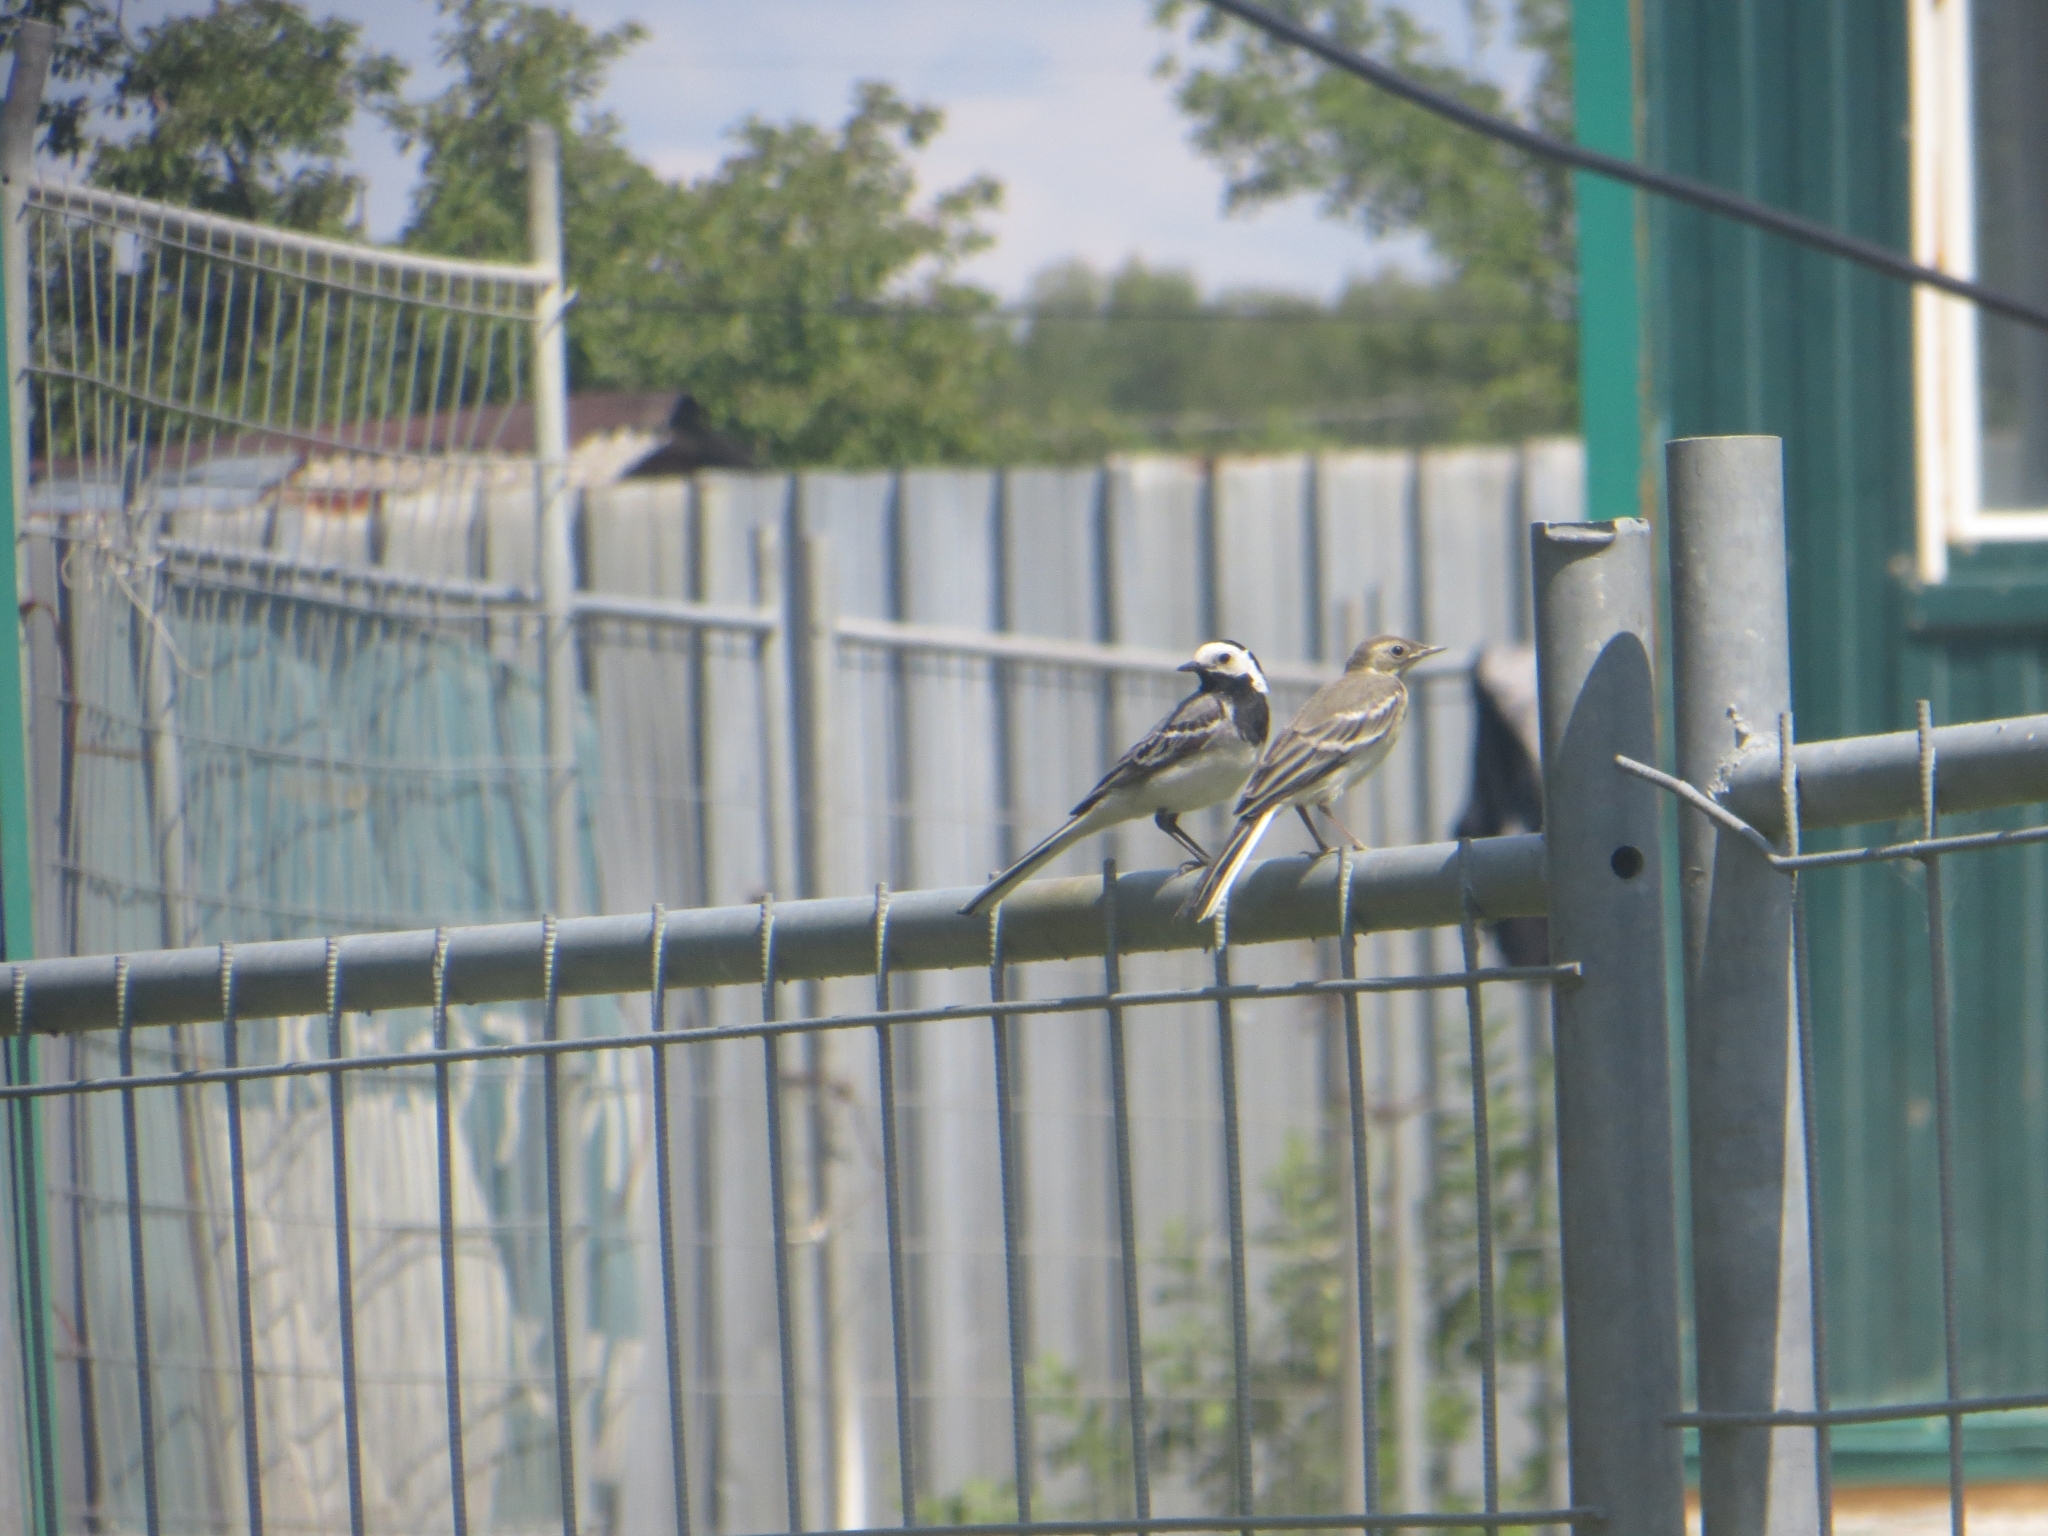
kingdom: Animalia
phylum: Chordata
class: Aves
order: Passeriformes
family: Motacillidae
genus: Motacilla
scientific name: Motacilla alba
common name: White wagtail
